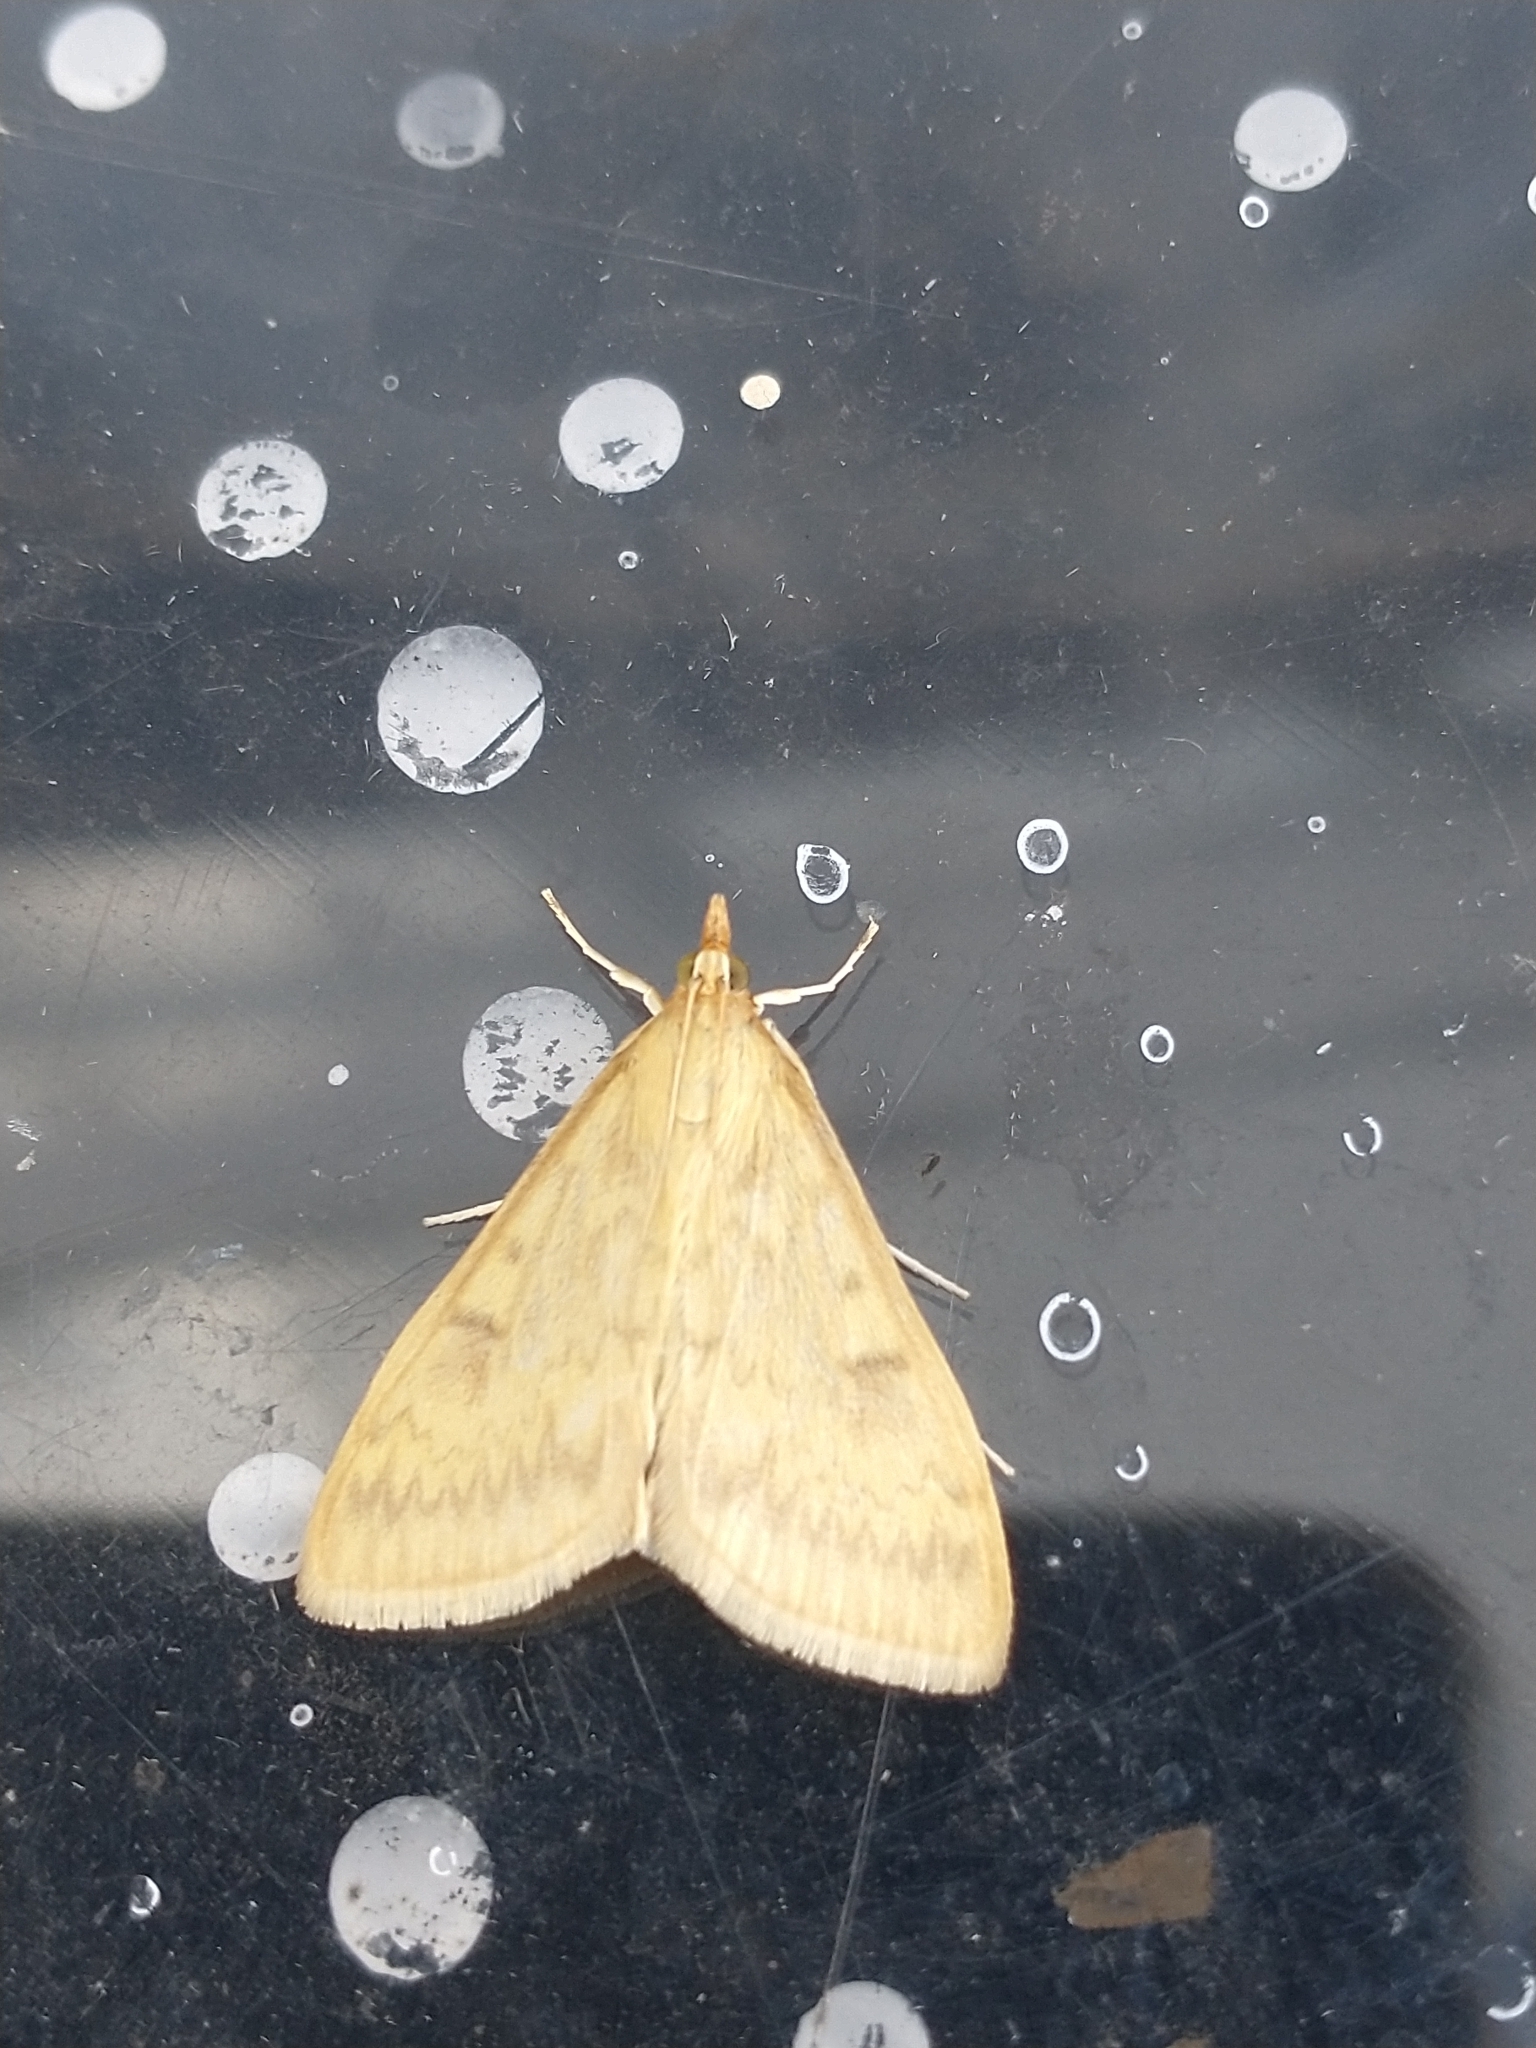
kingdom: Animalia
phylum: Arthropoda
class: Insecta
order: Lepidoptera
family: Crambidae
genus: Ostrinia
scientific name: Ostrinia nubilalis
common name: European corn borer
